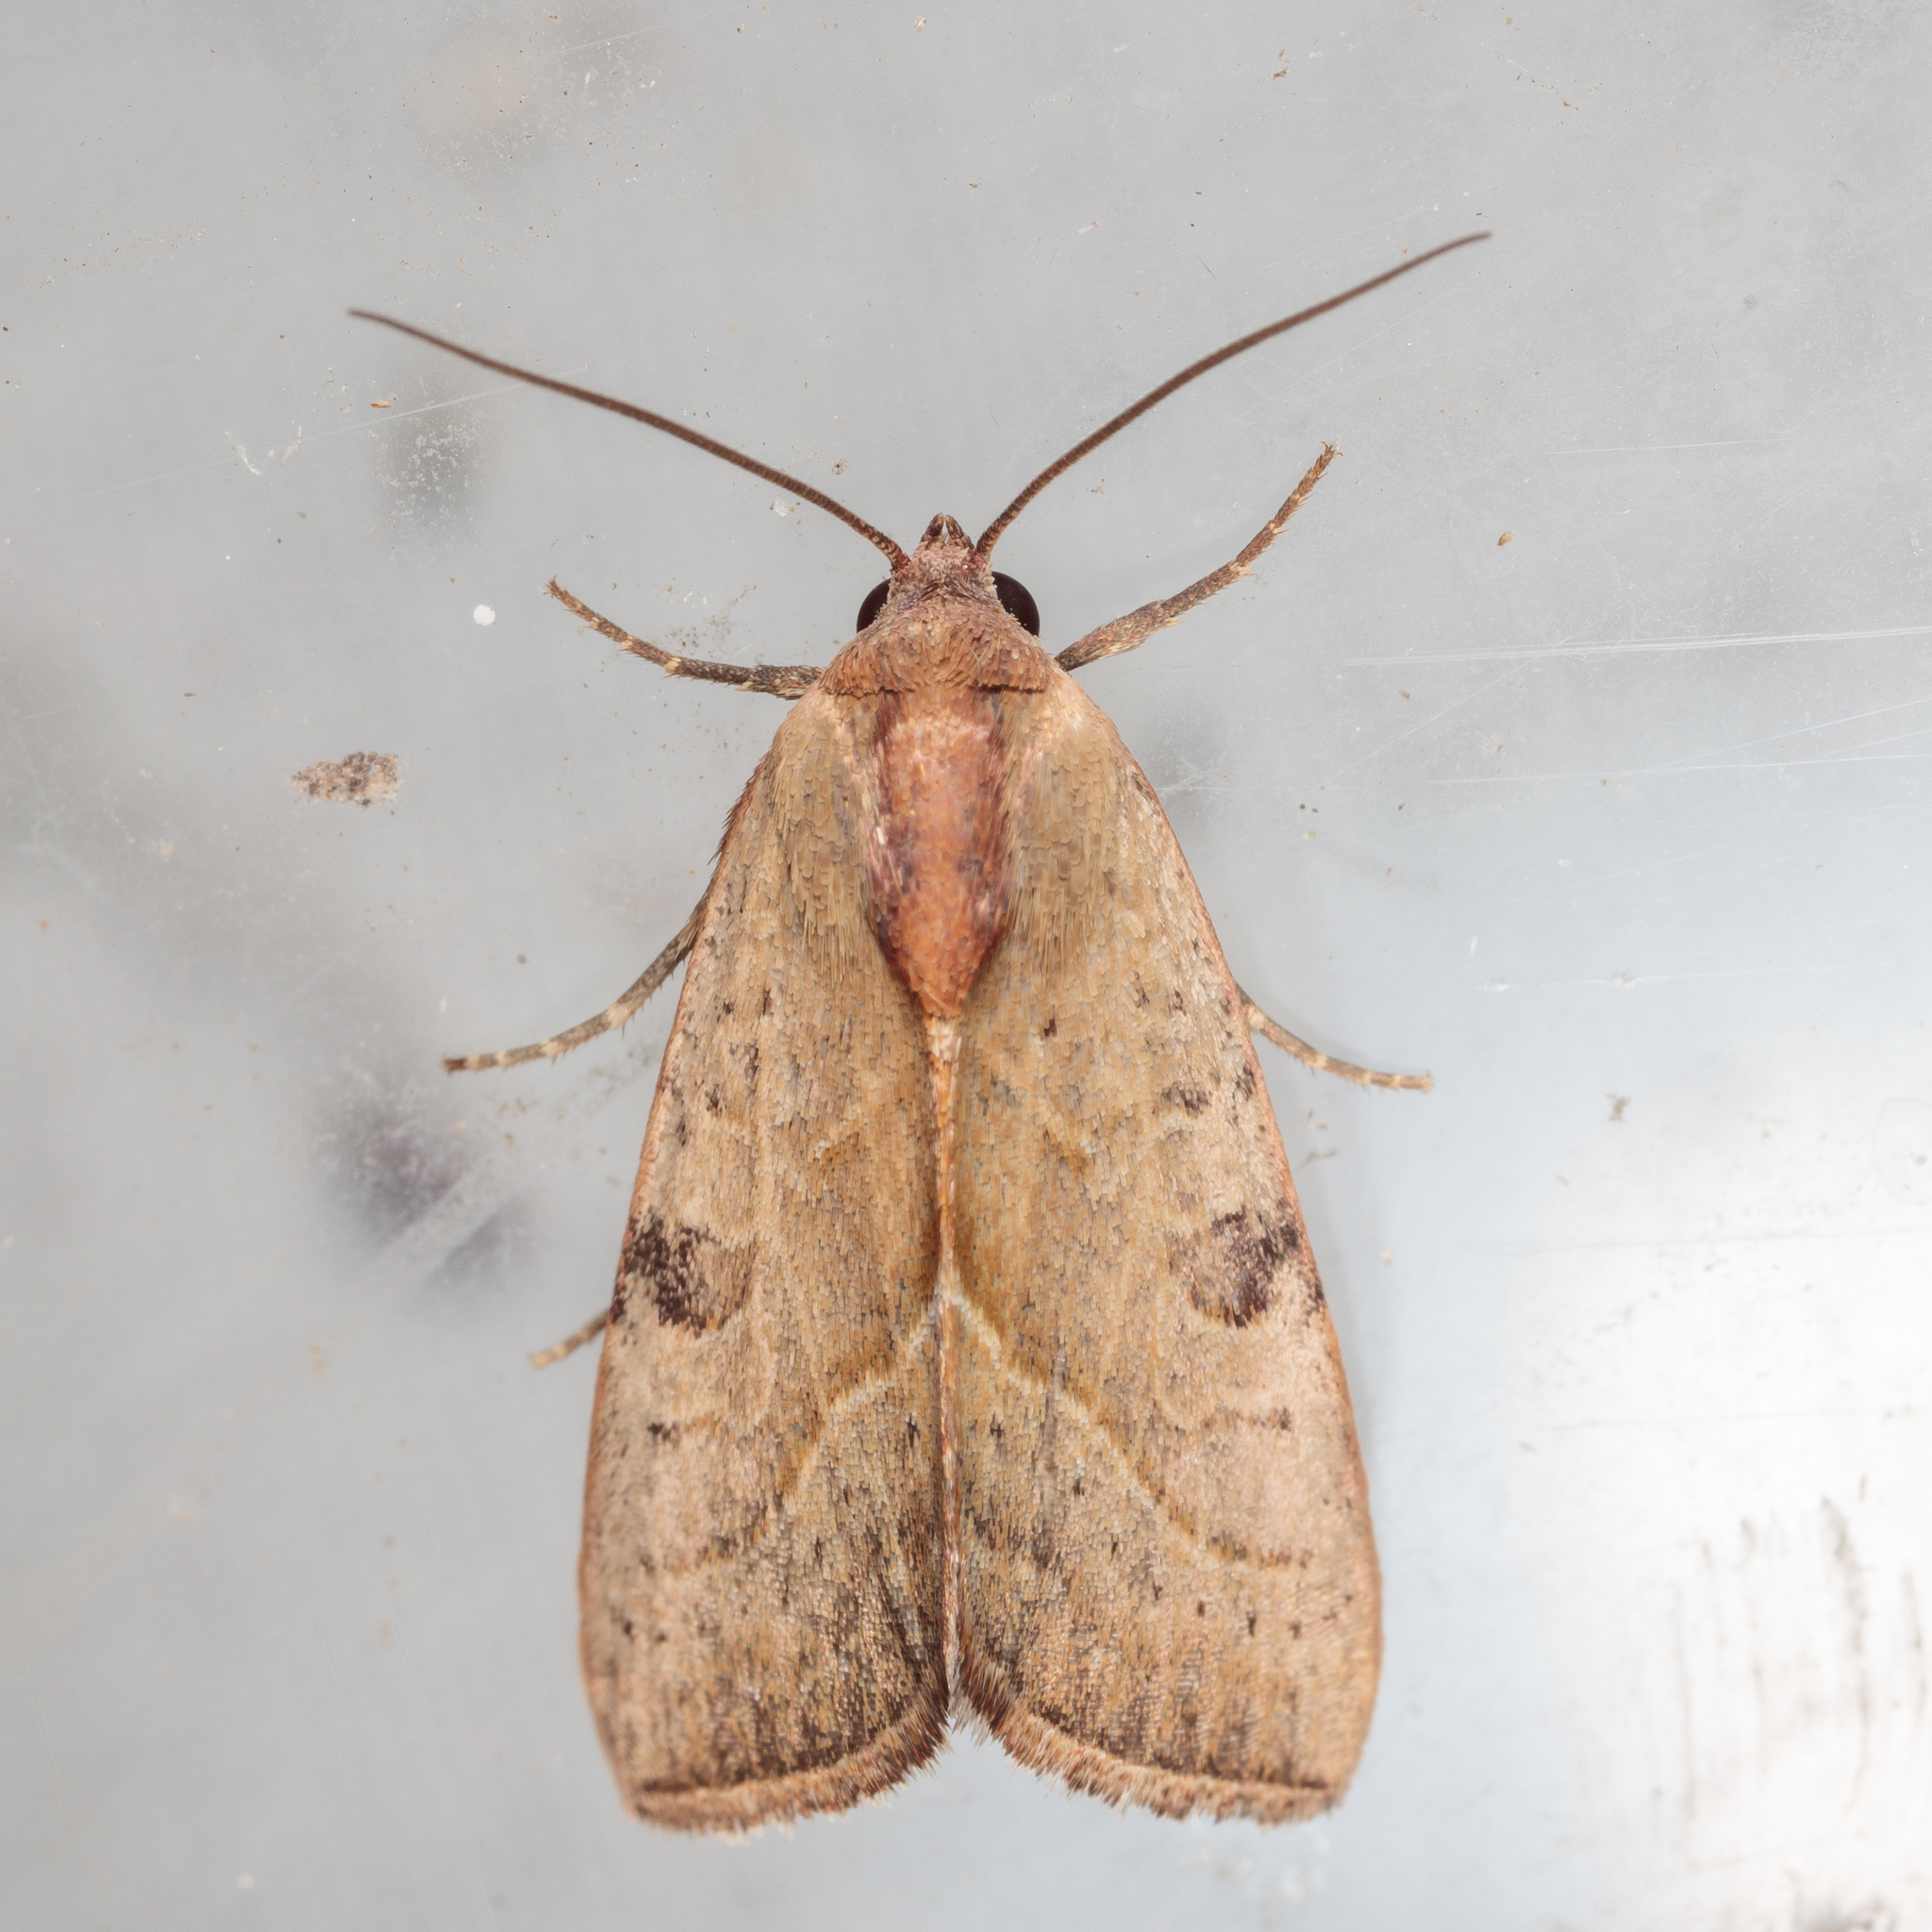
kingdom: Animalia
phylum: Arthropoda
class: Insecta
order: Lepidoptera
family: Noctuidae
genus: Galgula
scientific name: Galgula partita
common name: Wedgeling
